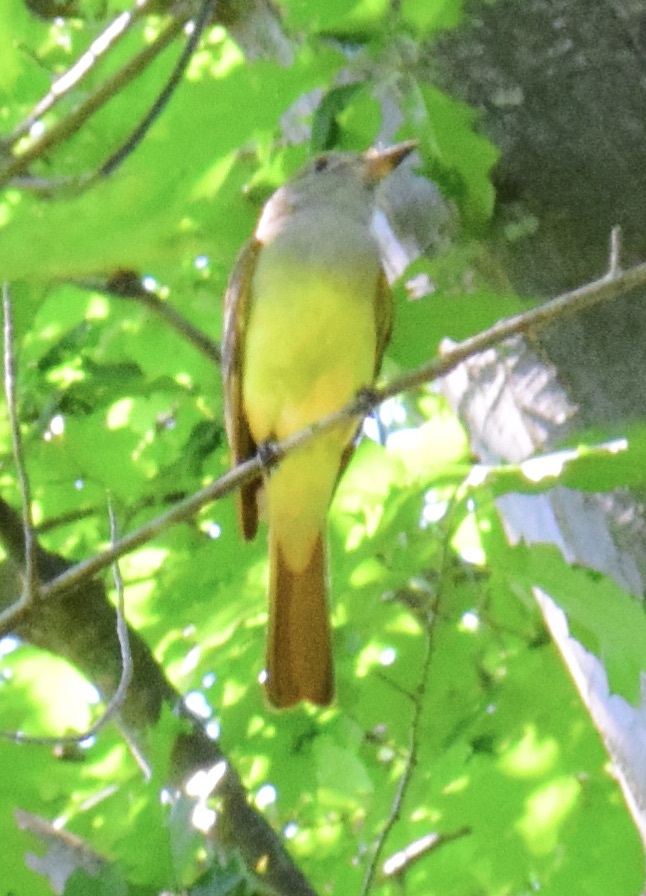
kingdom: Animalia
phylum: Chordata
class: Aves
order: Passeriformes
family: Tyrannidae
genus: Myiarchus
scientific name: Myiarchus crinitus
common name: Great crested flycatcher
